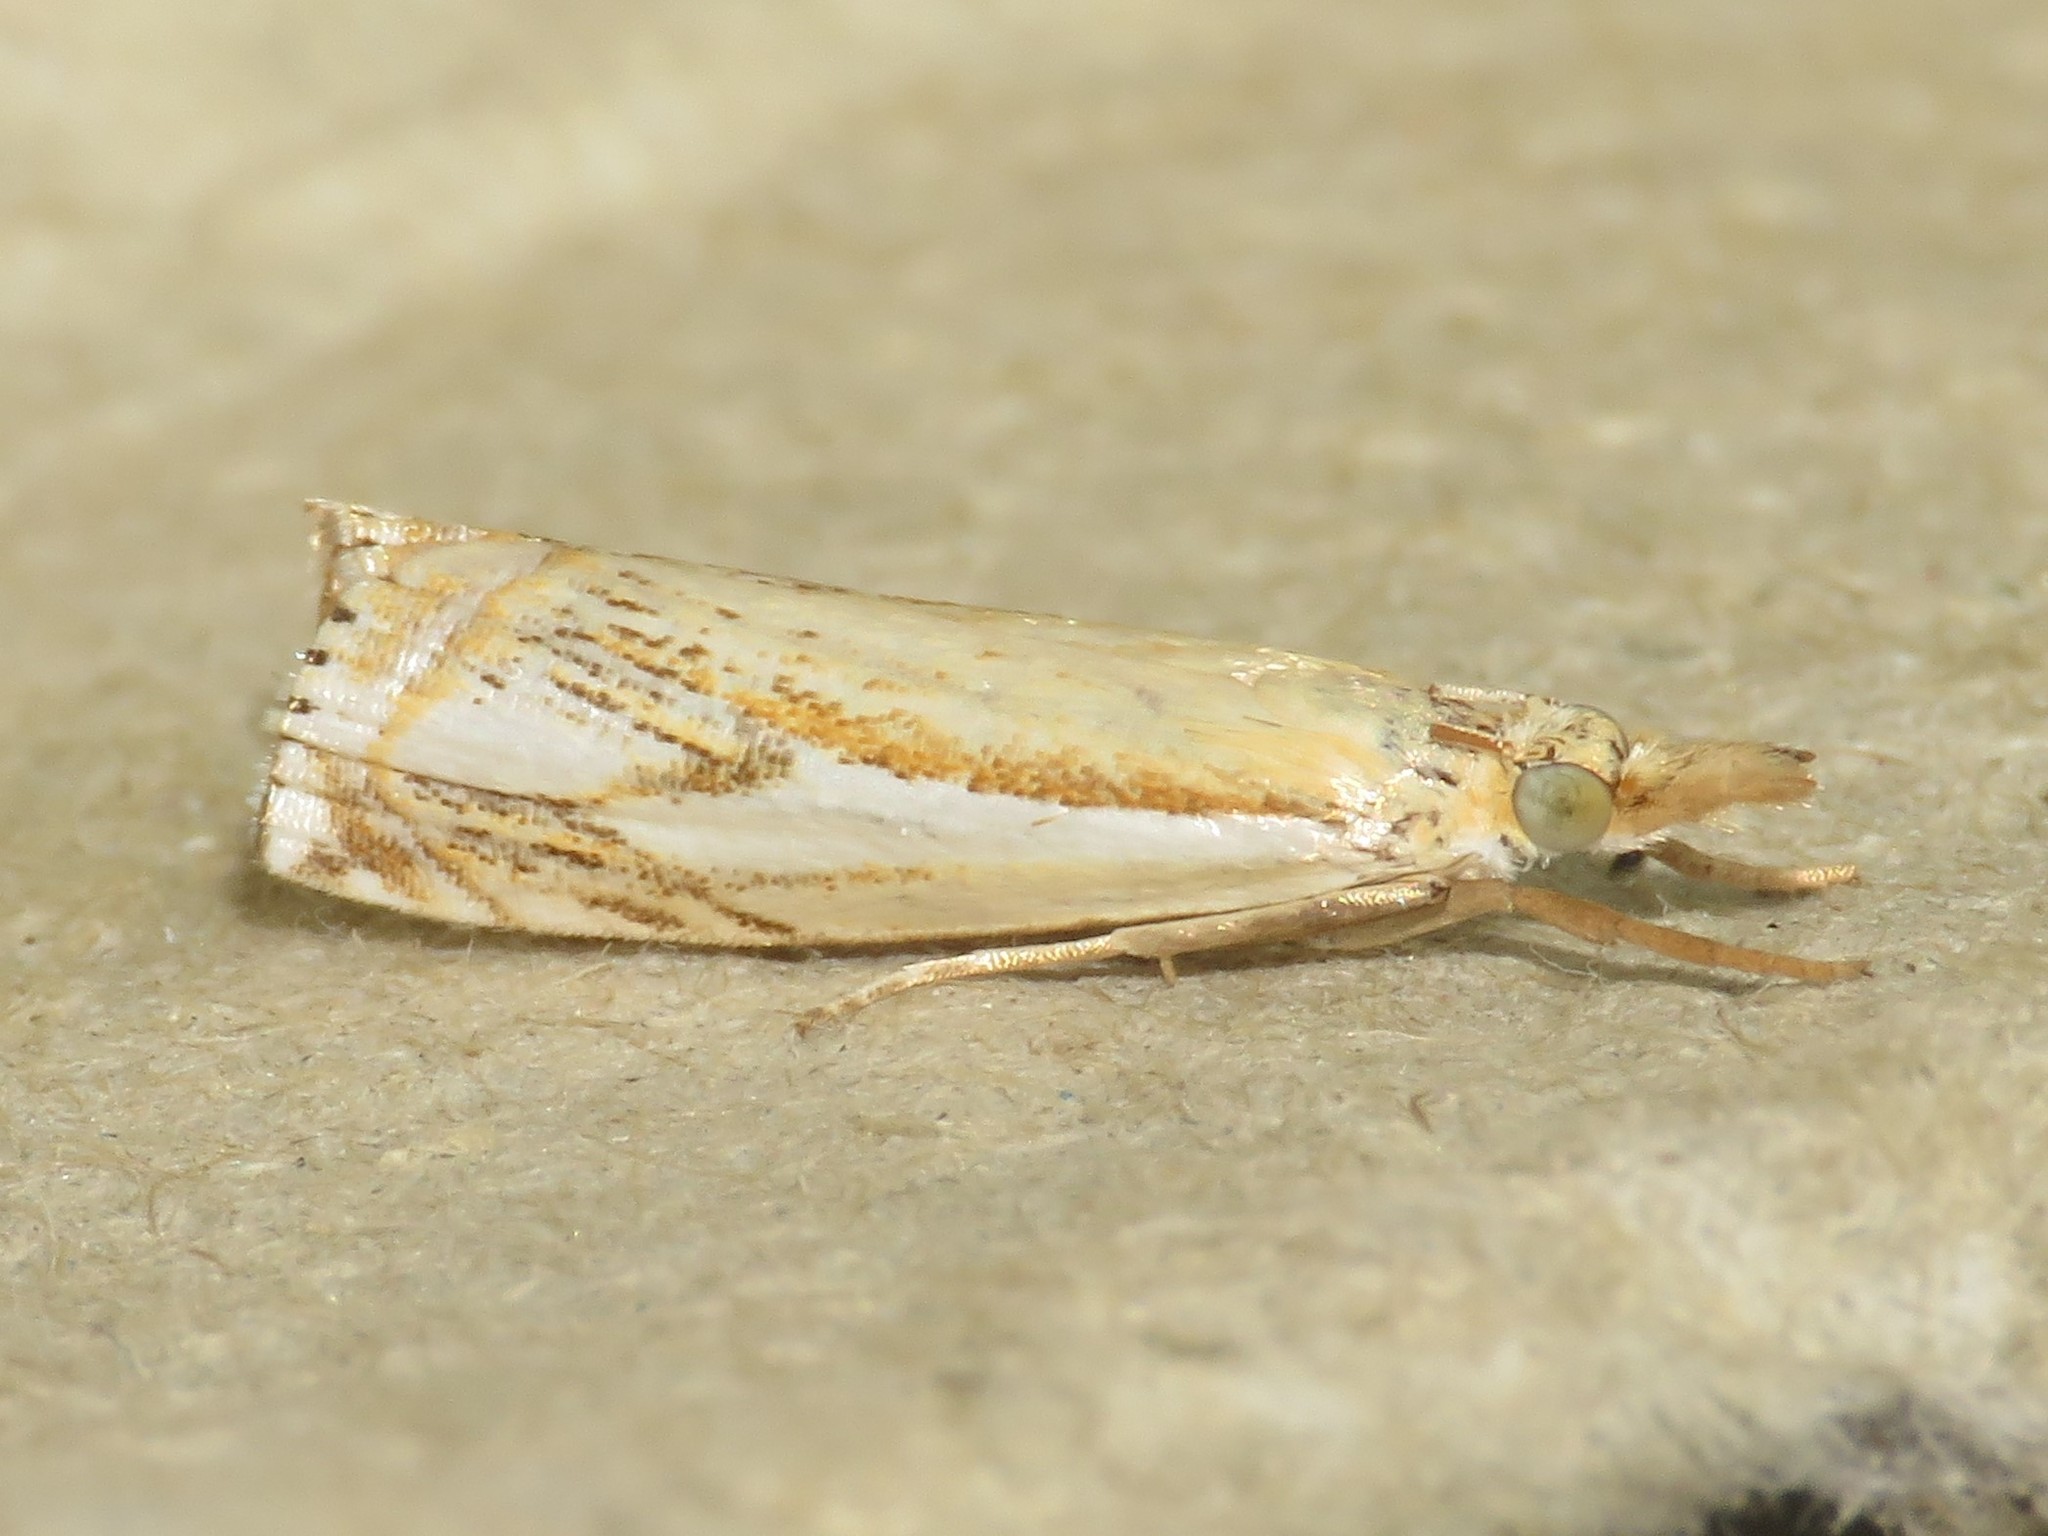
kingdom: Animalia
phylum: Arthropoda
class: Insecta
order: Lepidoptera
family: Crambidae
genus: Crambus
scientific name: Crambus agitatellus
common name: Double-banded grass-veneer
